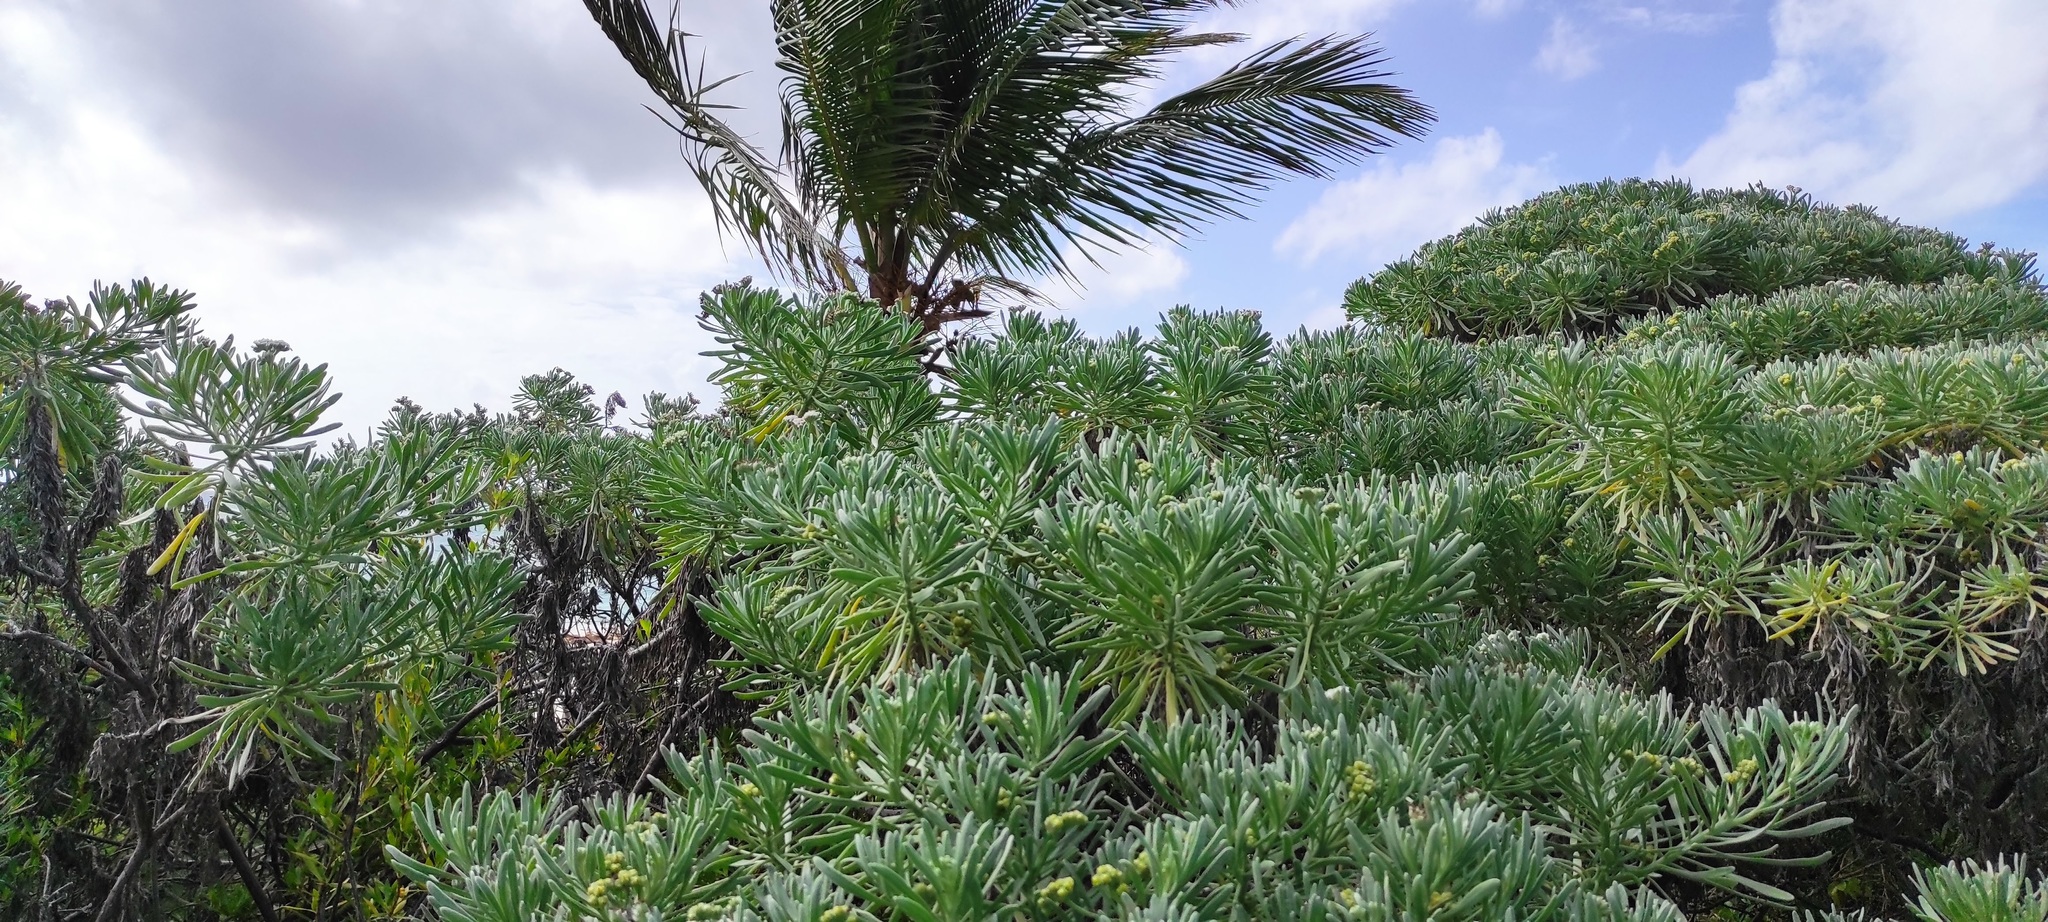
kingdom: Plantae
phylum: Tracheophyta
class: Magnoliopsida
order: Boraginales
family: Heliotropiaceae
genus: Tournefortia
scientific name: Tournefortia gnaphalodes
